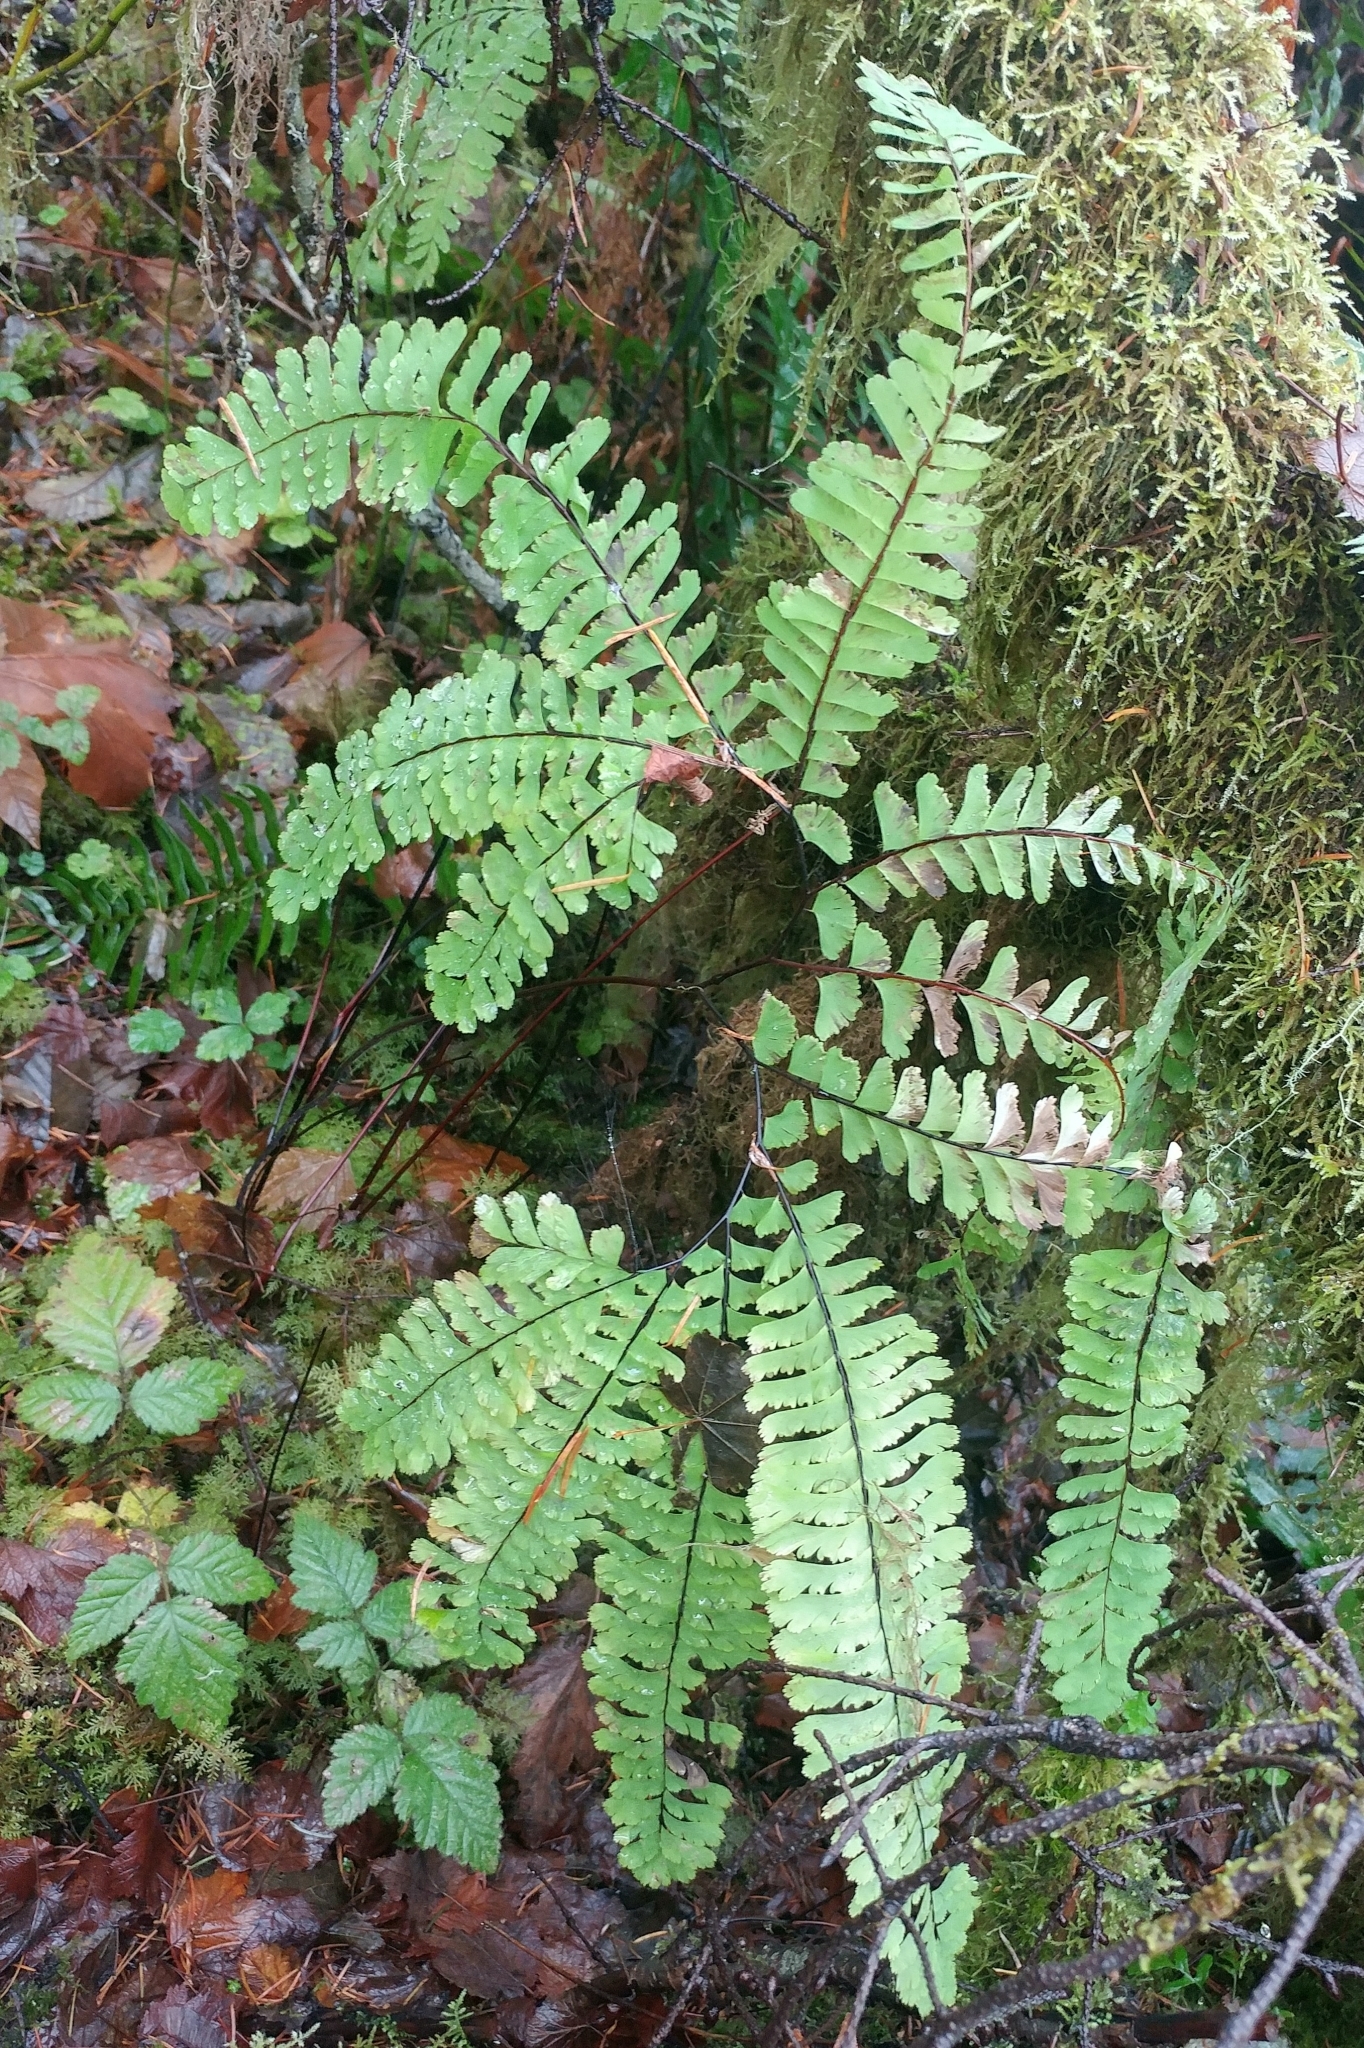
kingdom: Plantae
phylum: Tracheophyta
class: Polypodiopsida
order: Polypodiales
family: Pteridaceae
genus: Adiantum
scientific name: Adiantum aleuticum
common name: Aleutian maidenhair fern
